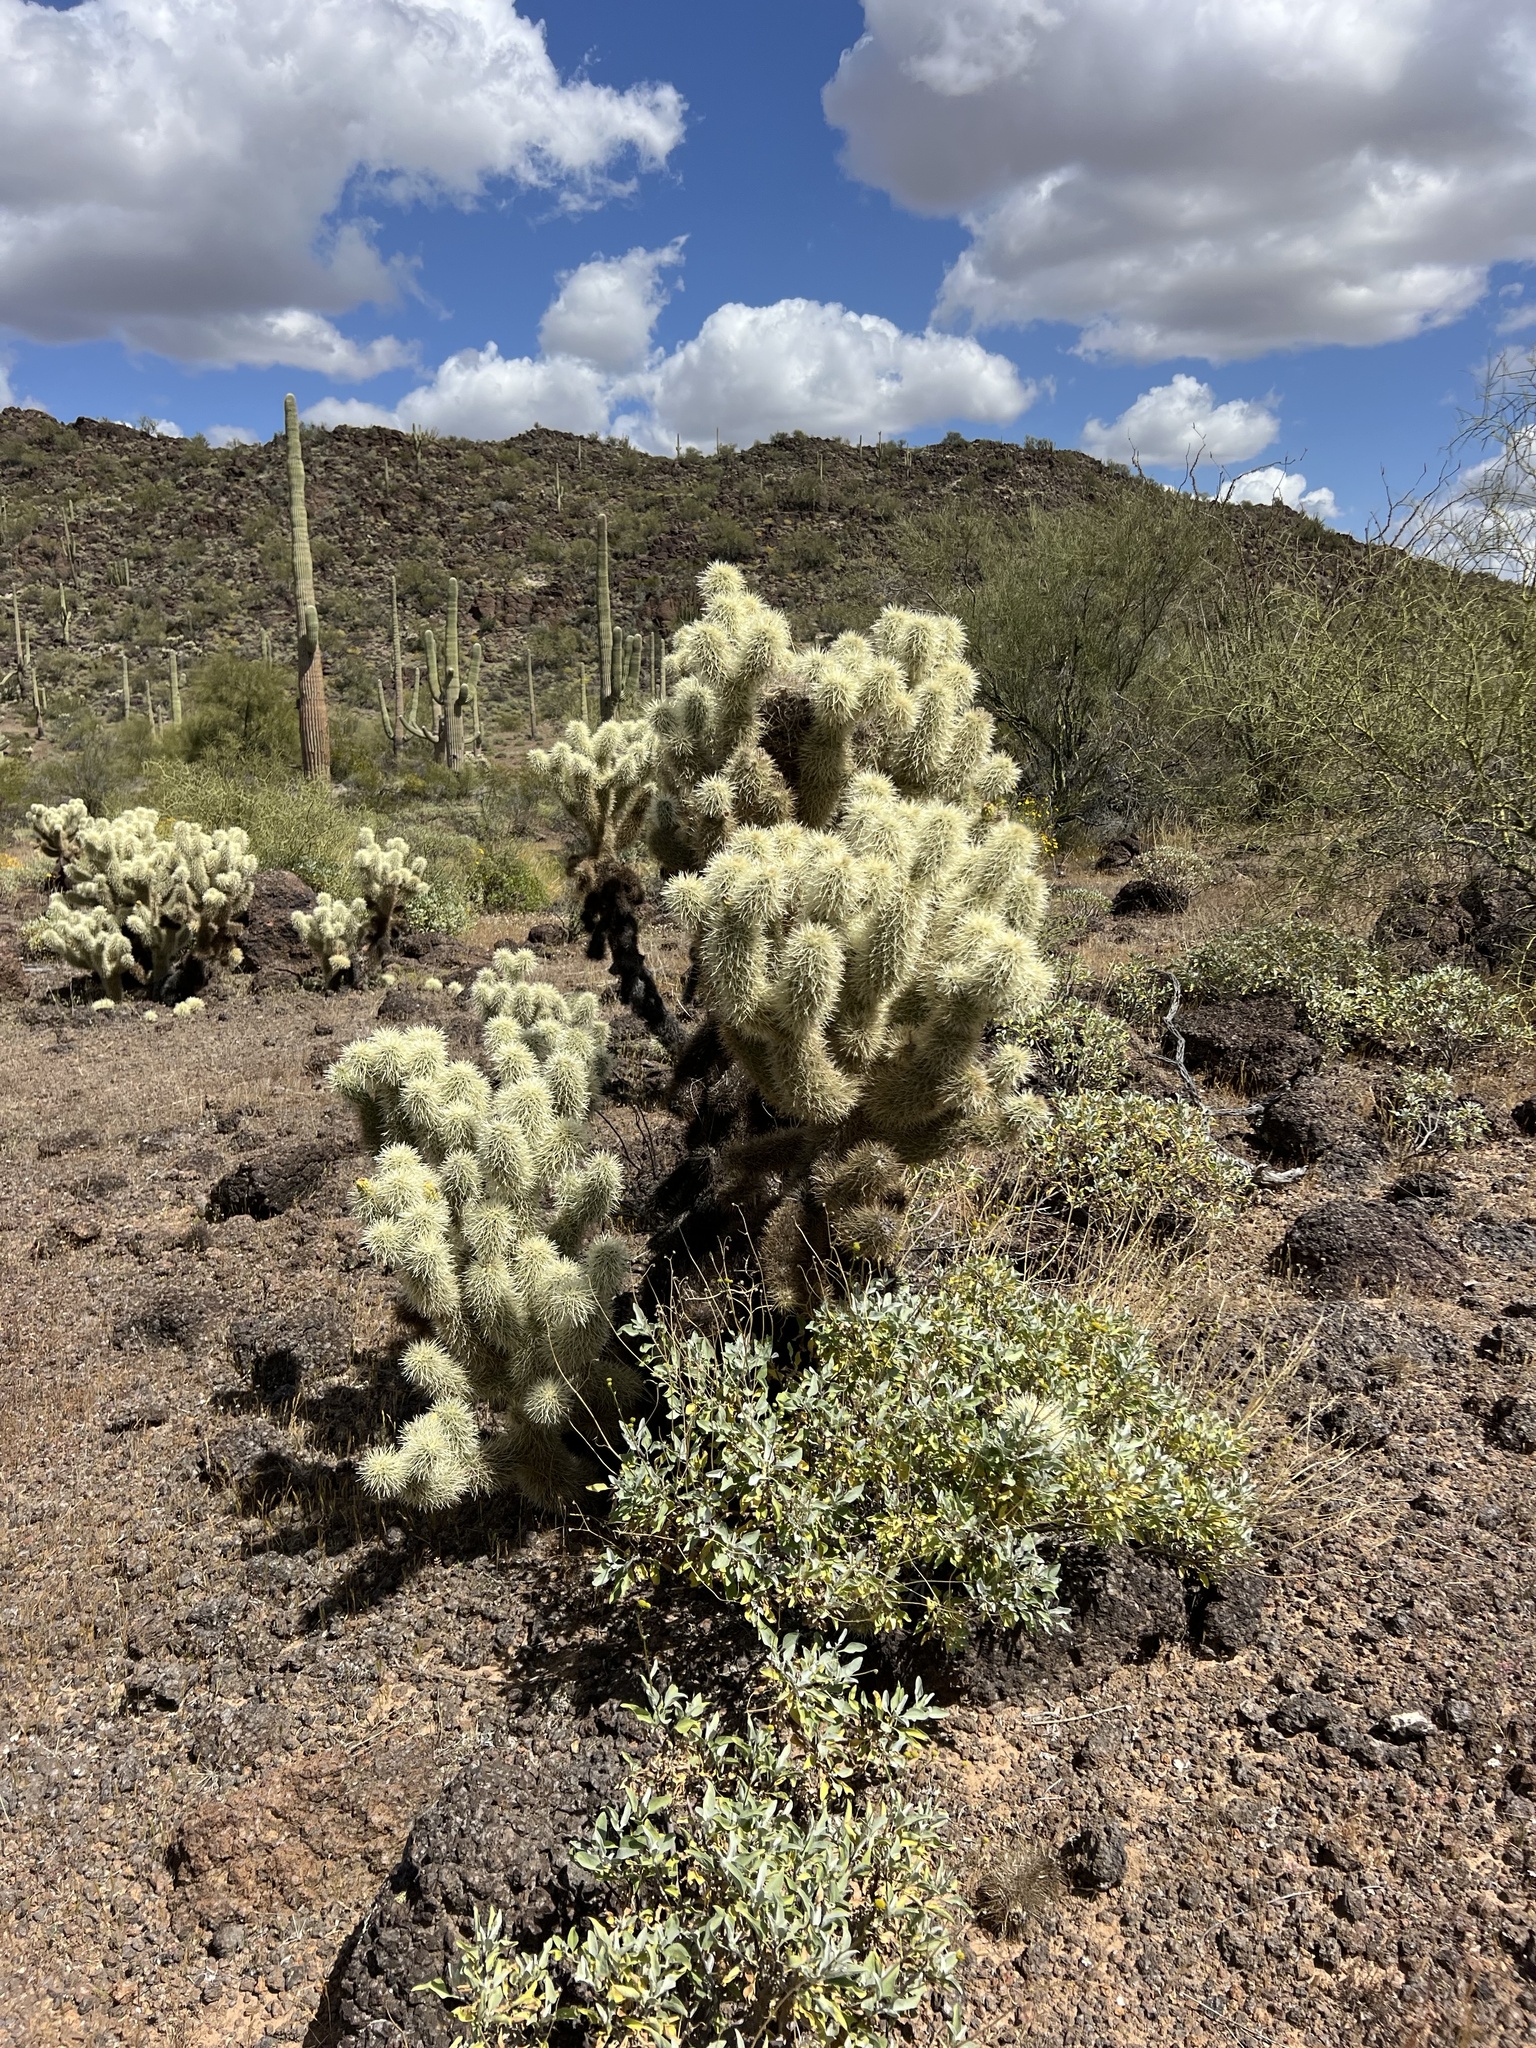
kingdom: Plantae
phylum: Tracheophyta
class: Magnoliopsida
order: Caryophyllales
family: Cactaceae
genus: Cylindropuntia
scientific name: Cylindropuntia fosbergii
